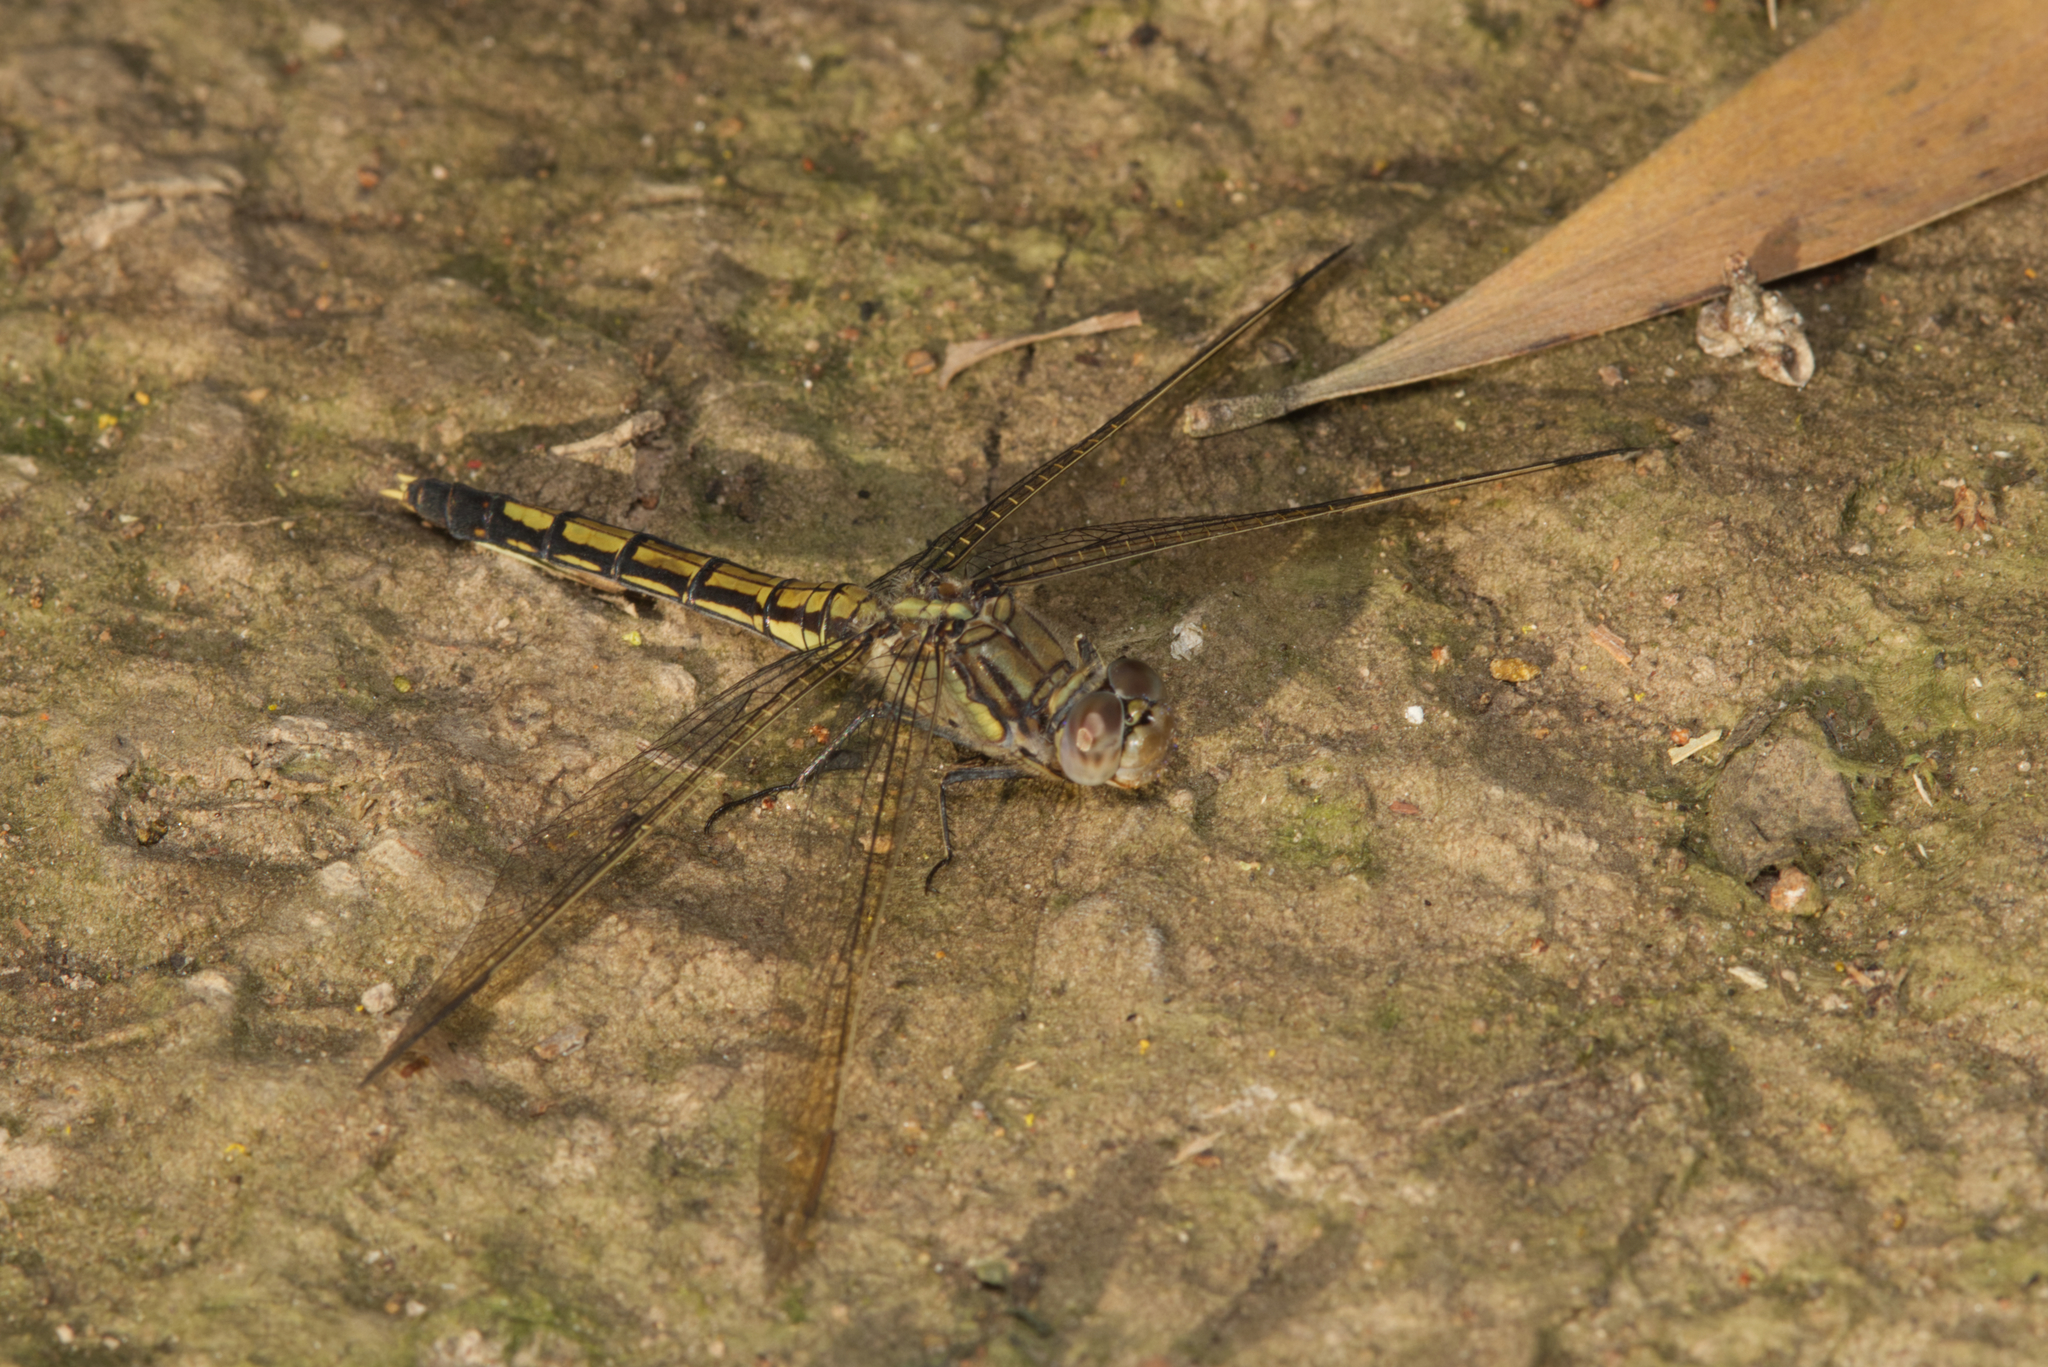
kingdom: Animalia
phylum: Arthropoda
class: Insecta
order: Odonata
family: Libellulidae
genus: Orthetrum
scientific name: Orthetrum caledonicum
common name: Blue skimmer
